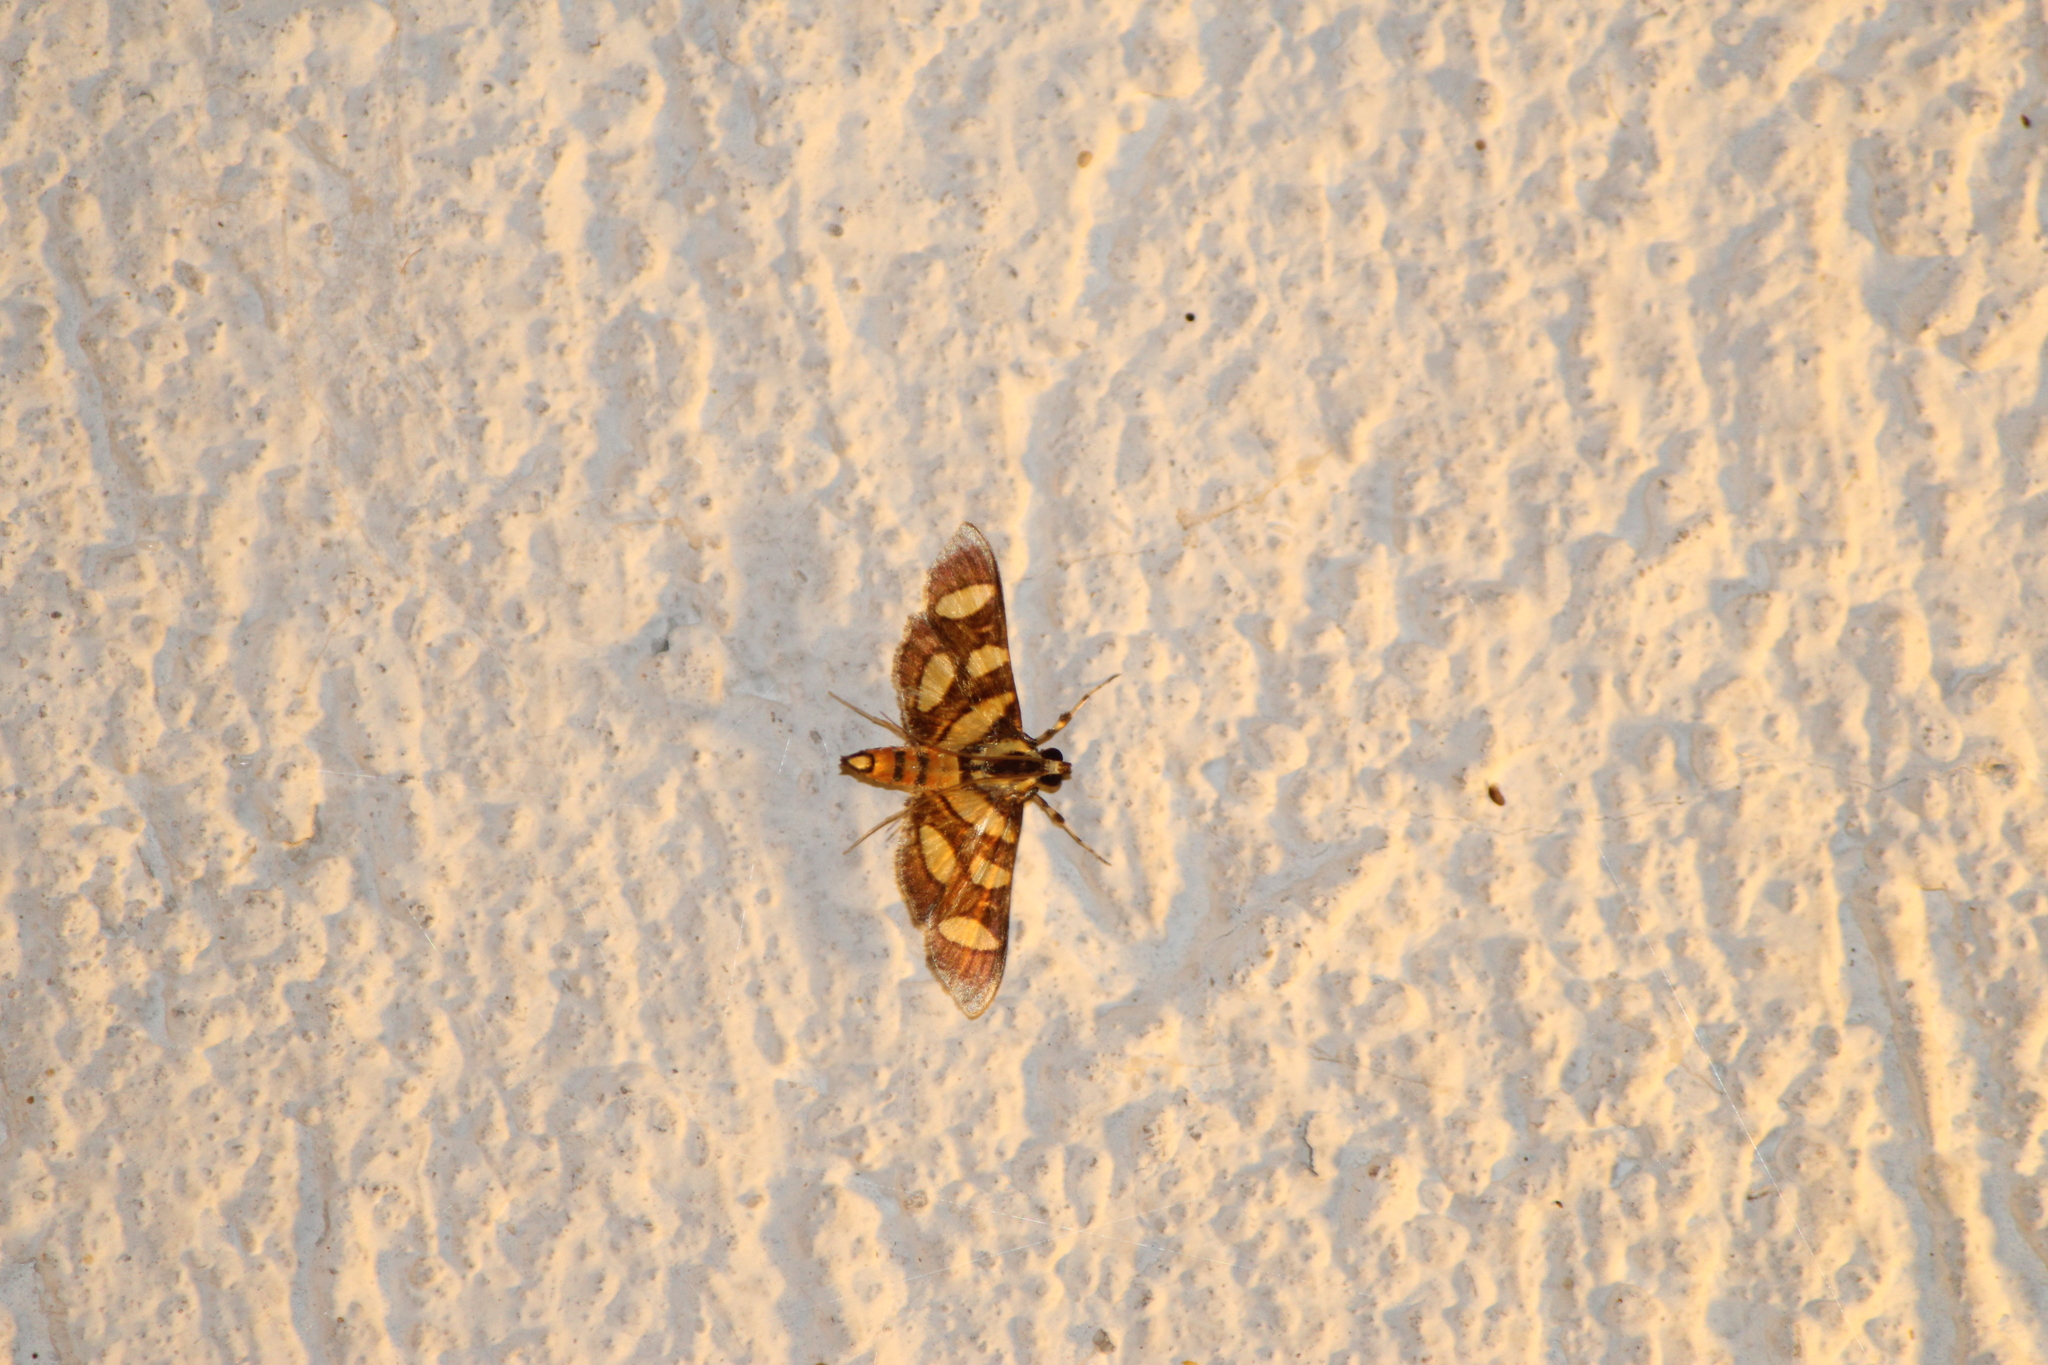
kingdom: Animalia
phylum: Arthropoda
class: Insecta
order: Lepidoptera
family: Crambidae
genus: Syngamia
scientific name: Syngamia florella
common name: Orange-spotted flower moth
